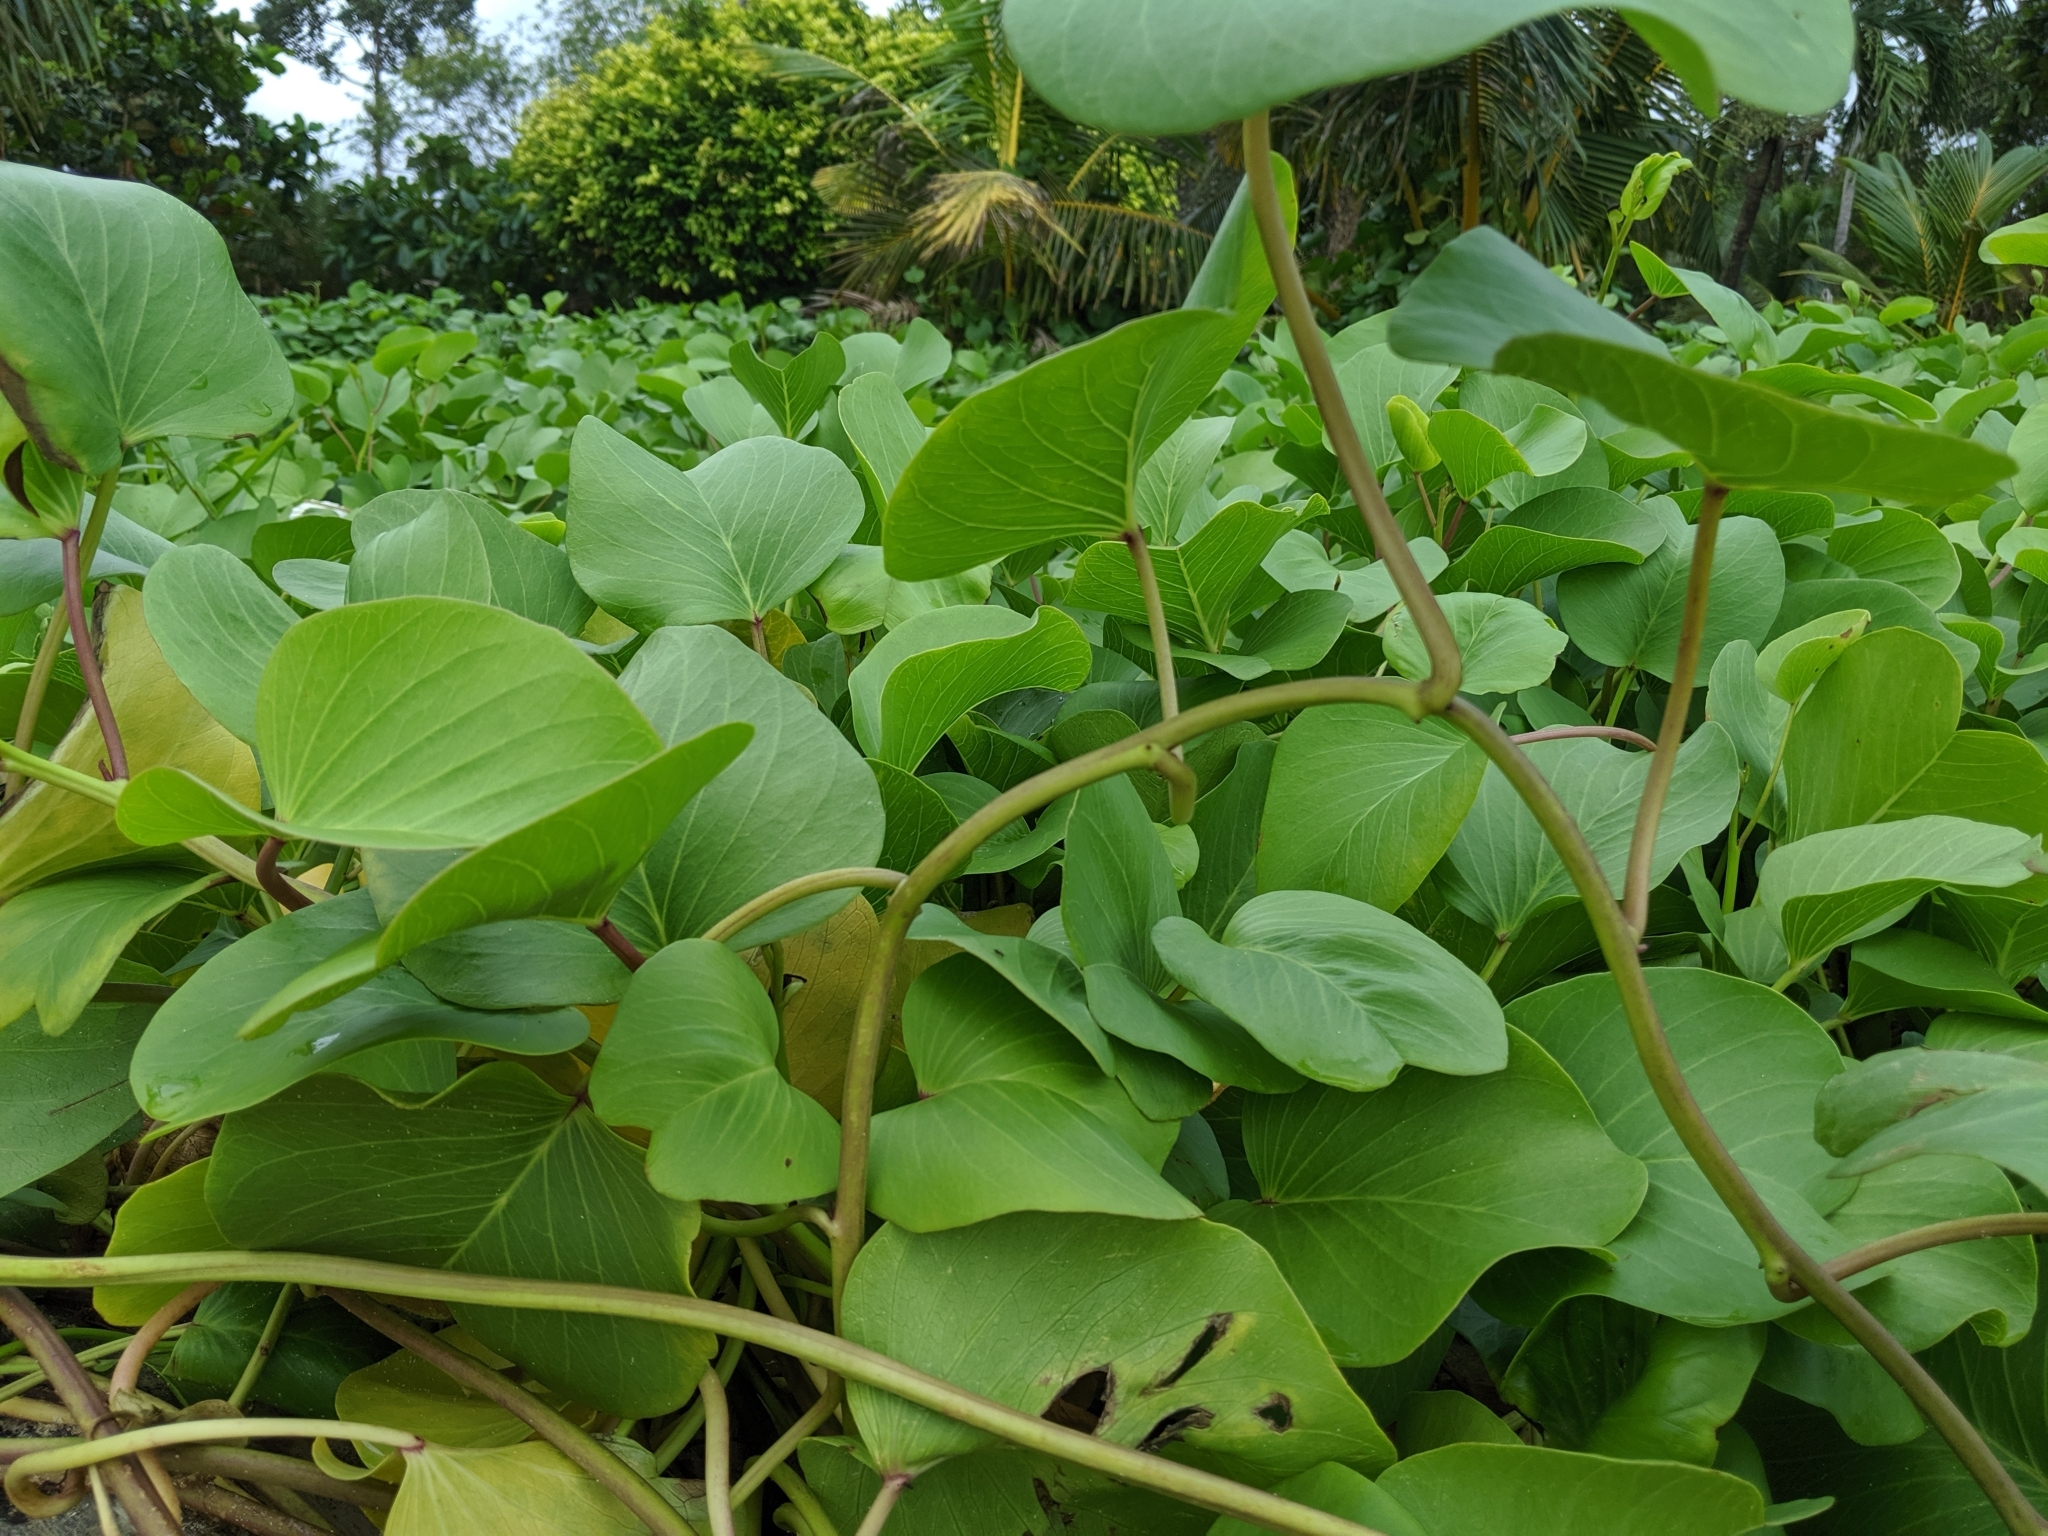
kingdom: Plantae
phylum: Tracheophyta
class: Magnoliopsida
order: Solanales
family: Convolvulaceae
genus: Ipomoea
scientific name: Ipomoea pes-caprae
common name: Beach morning glory
